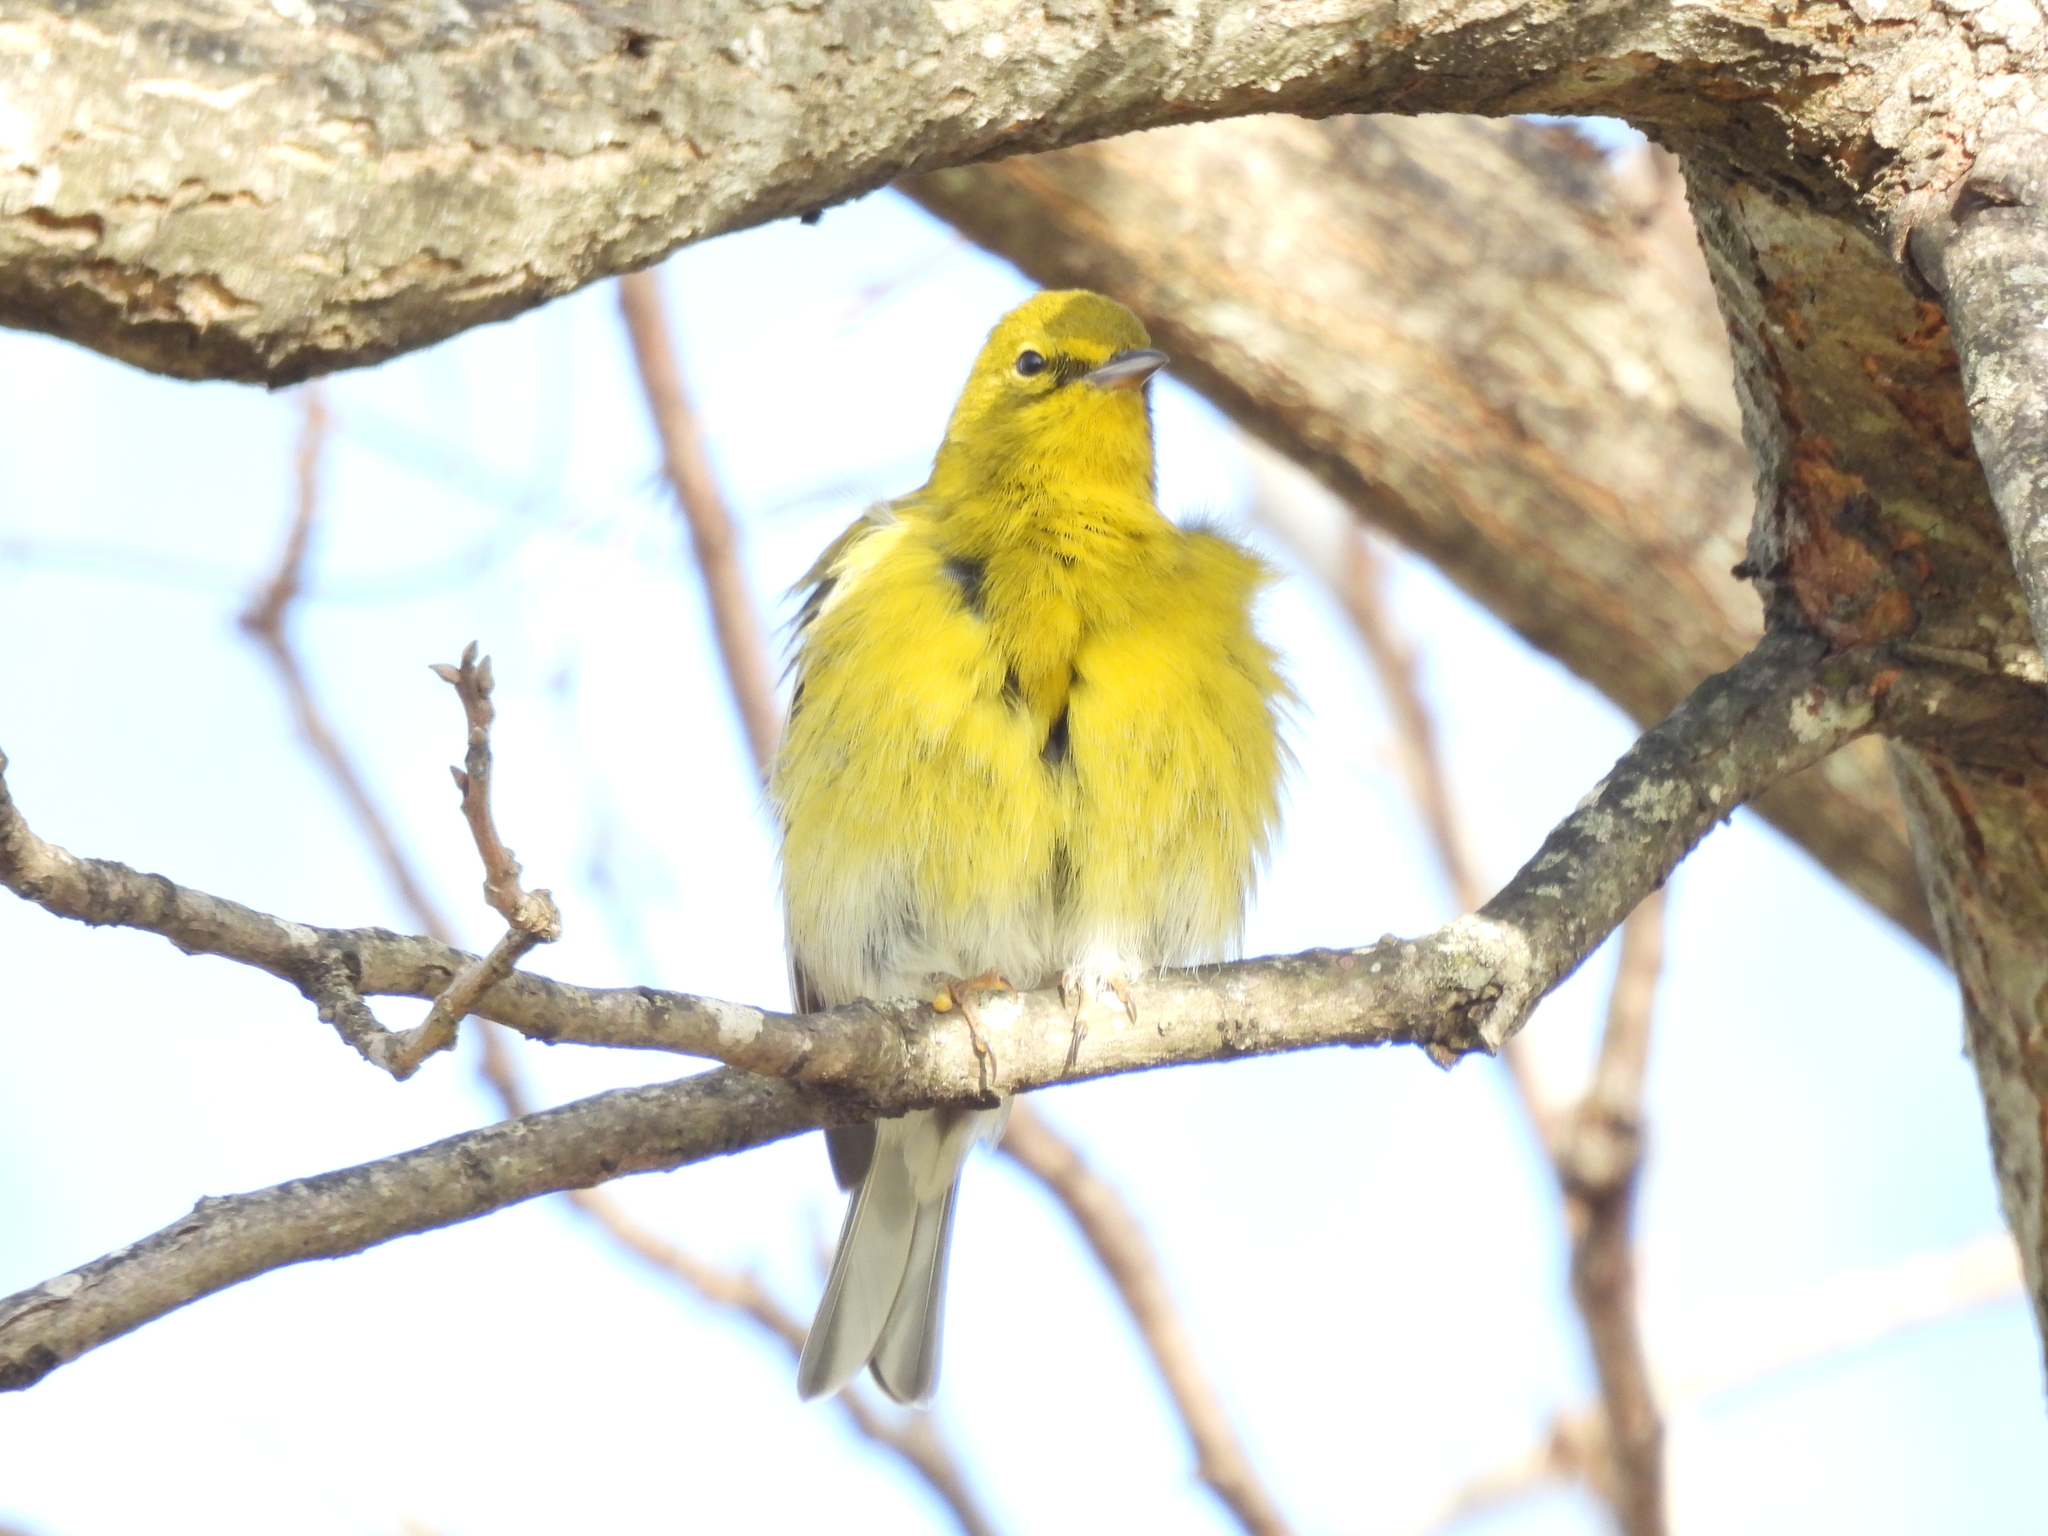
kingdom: Animalia
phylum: Chordata
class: Aves
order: Passeriformes
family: Parulidae
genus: Setophaga
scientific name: Setophaga pinus
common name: Pine warbler
